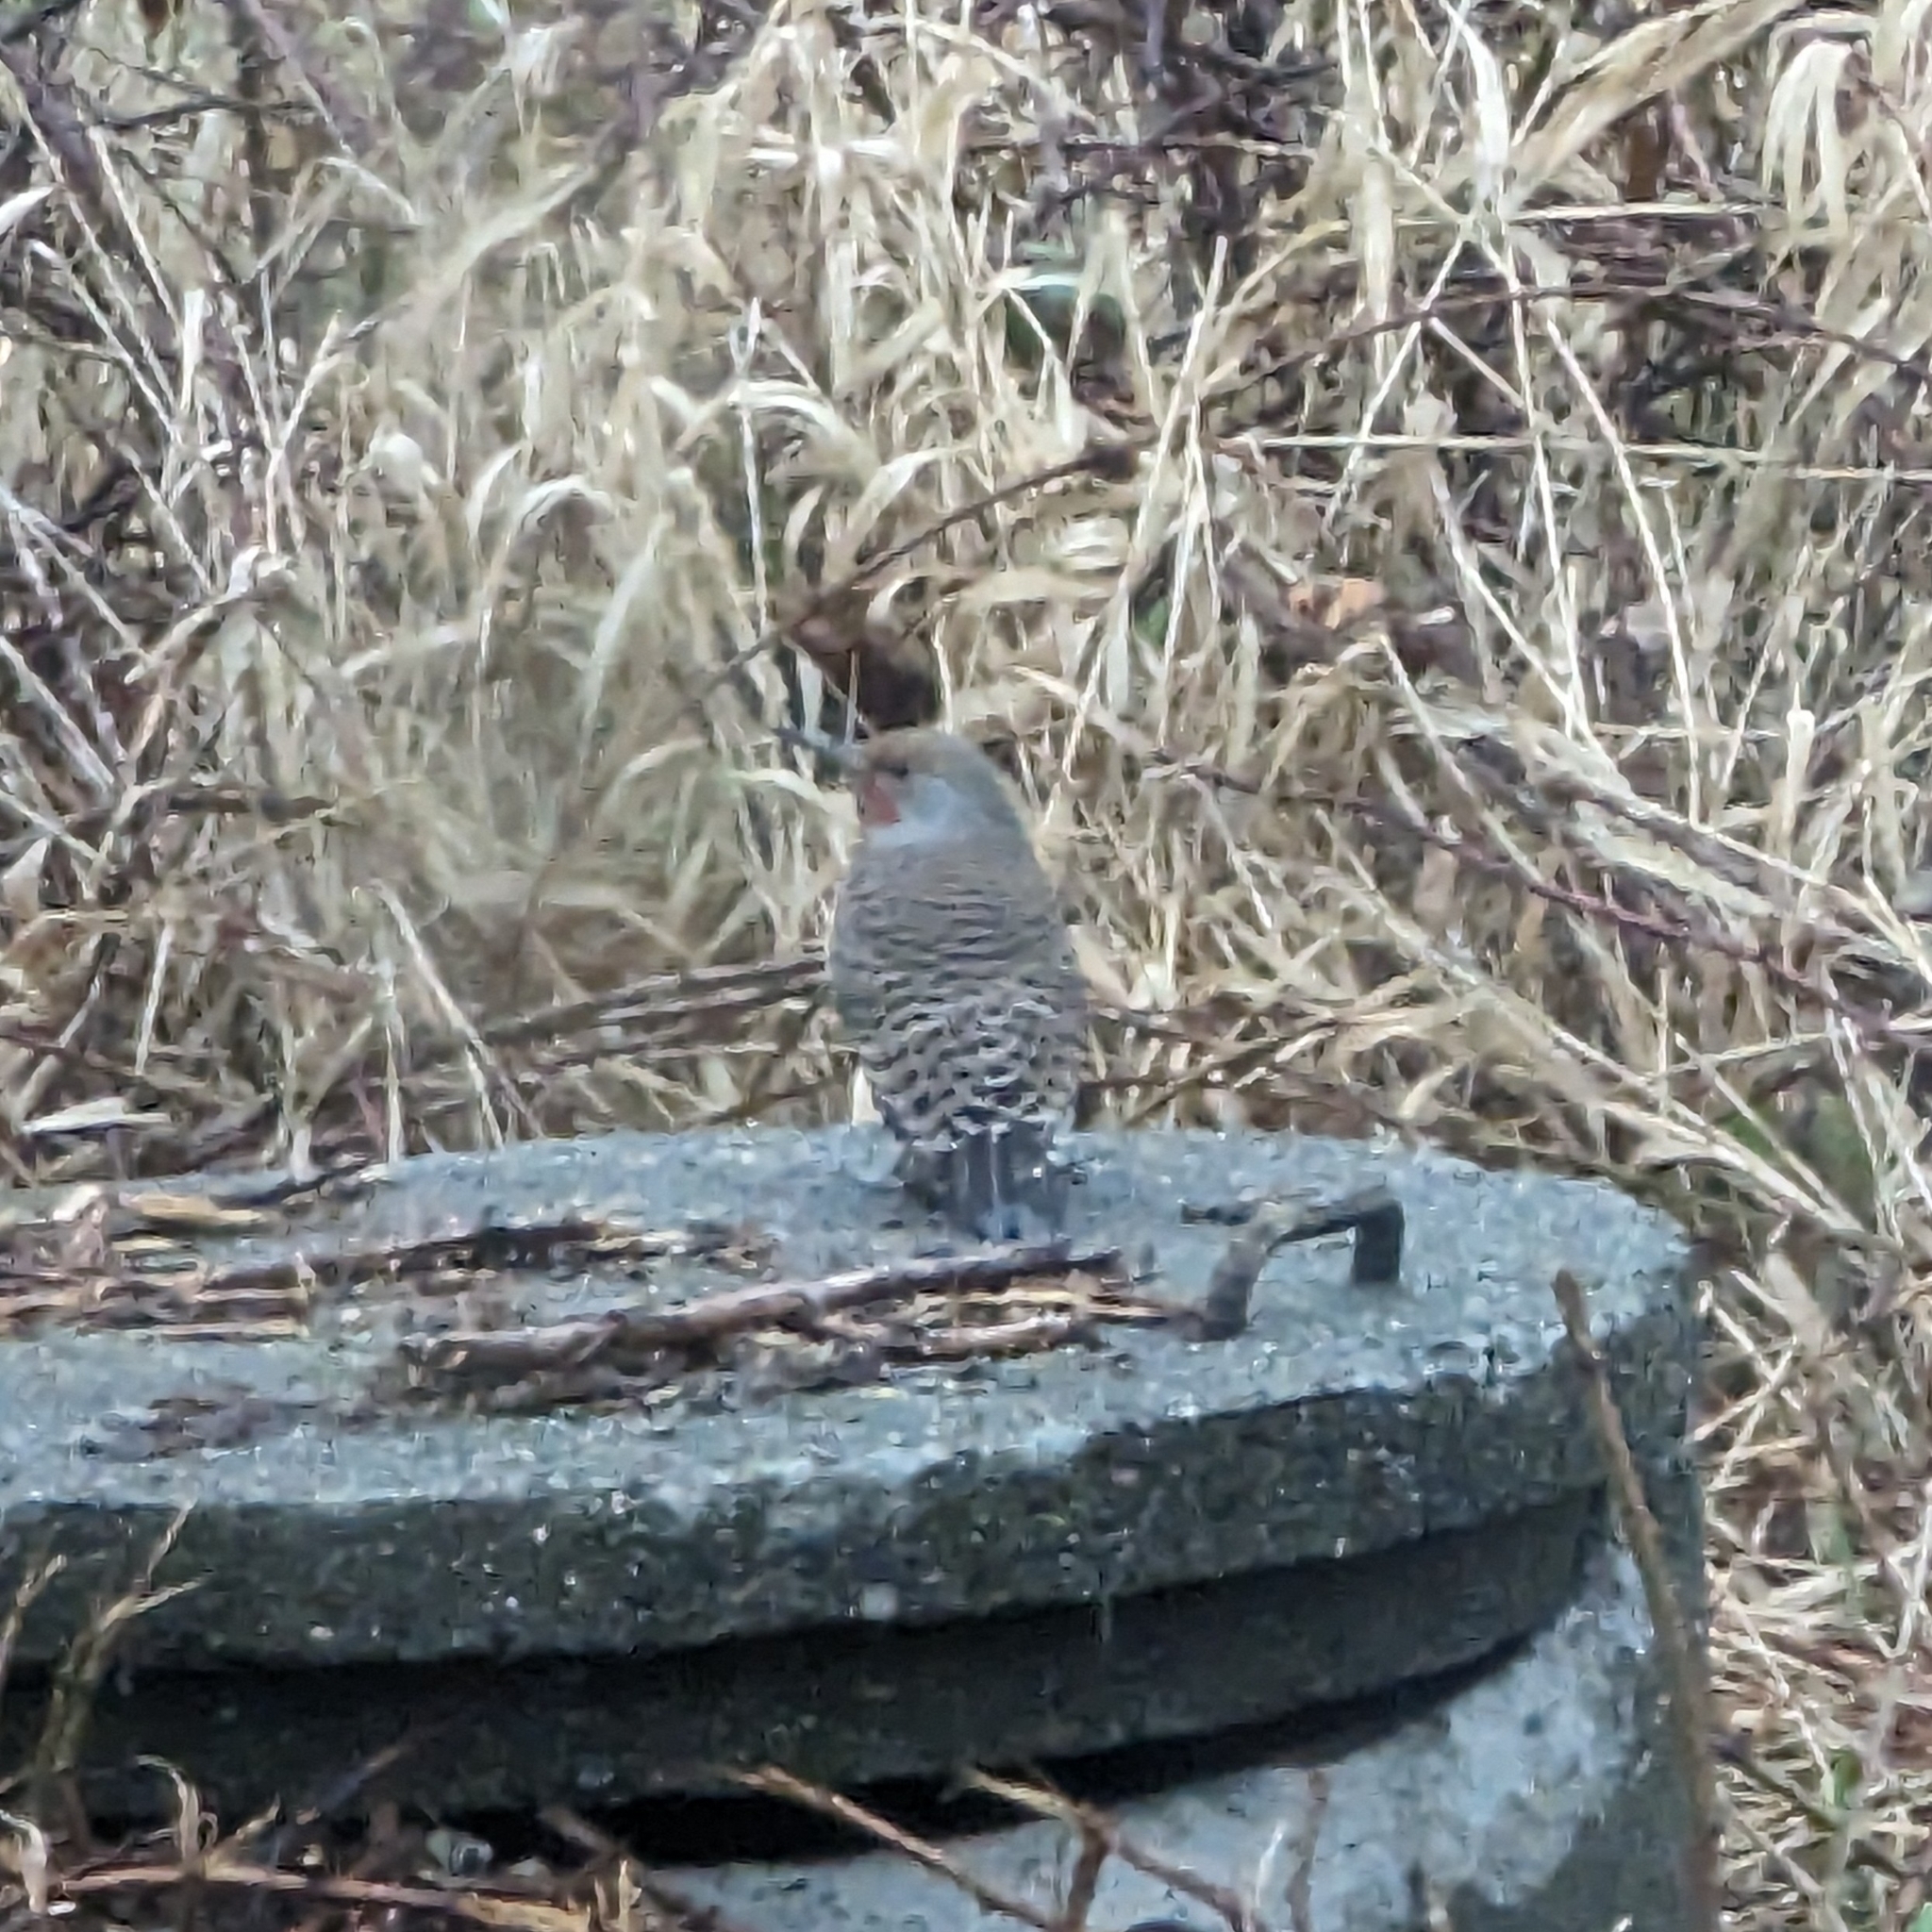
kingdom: Animalia
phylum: Chordata
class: Aves
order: Piciformes
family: Picidae
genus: Colaptes
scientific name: Colaptes auratus
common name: Northern flicker
